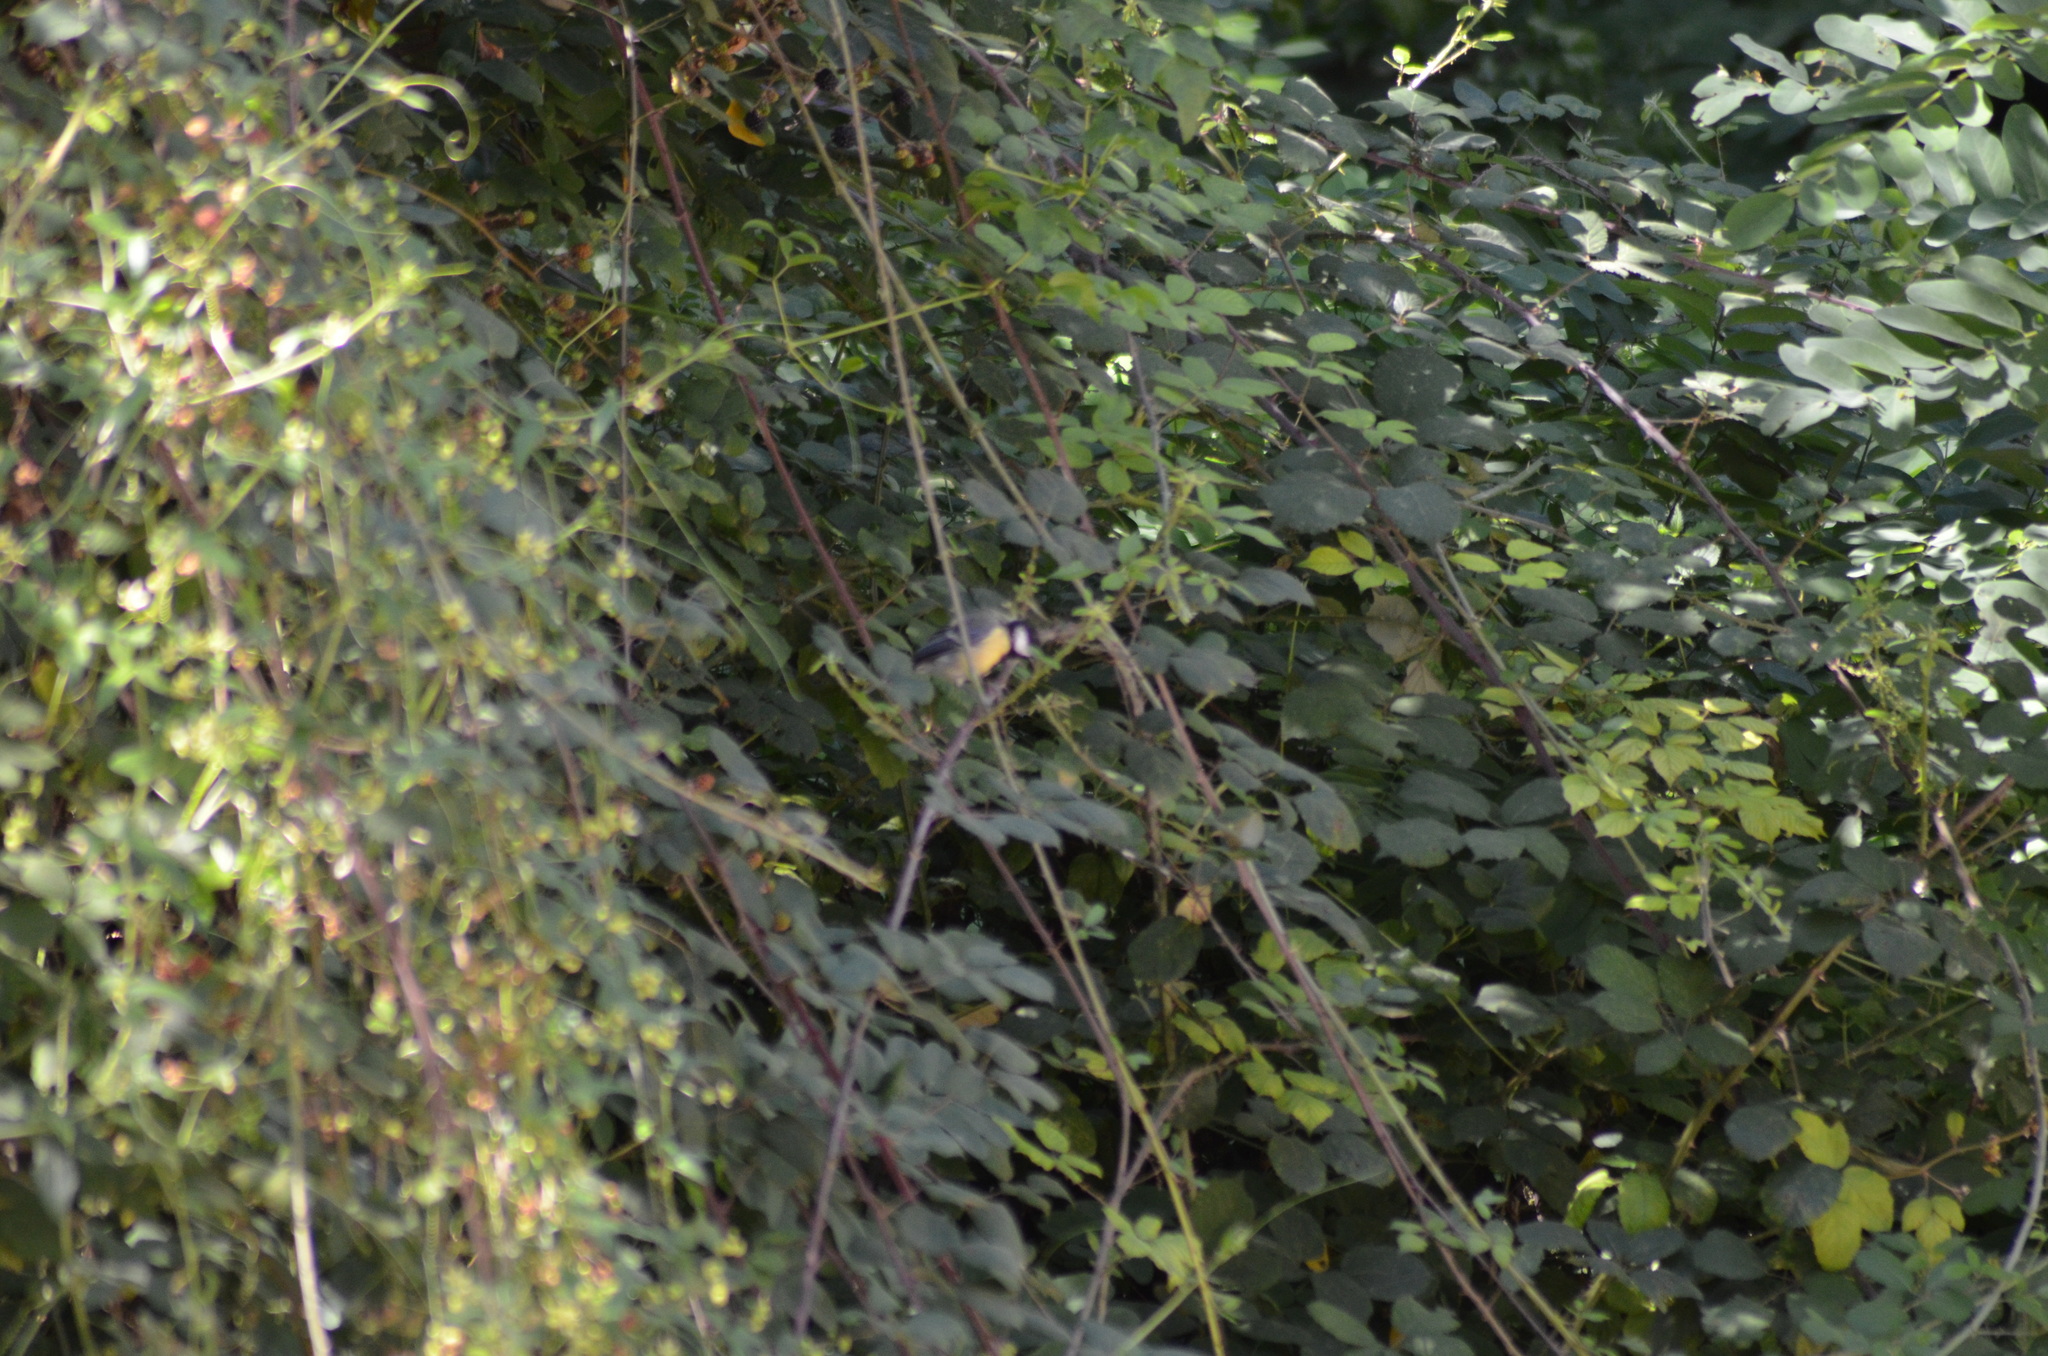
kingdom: Animalia
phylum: Chordata
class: Aves
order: Passeriformes
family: Paridae
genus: Parus
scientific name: Parus major
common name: Great tit
